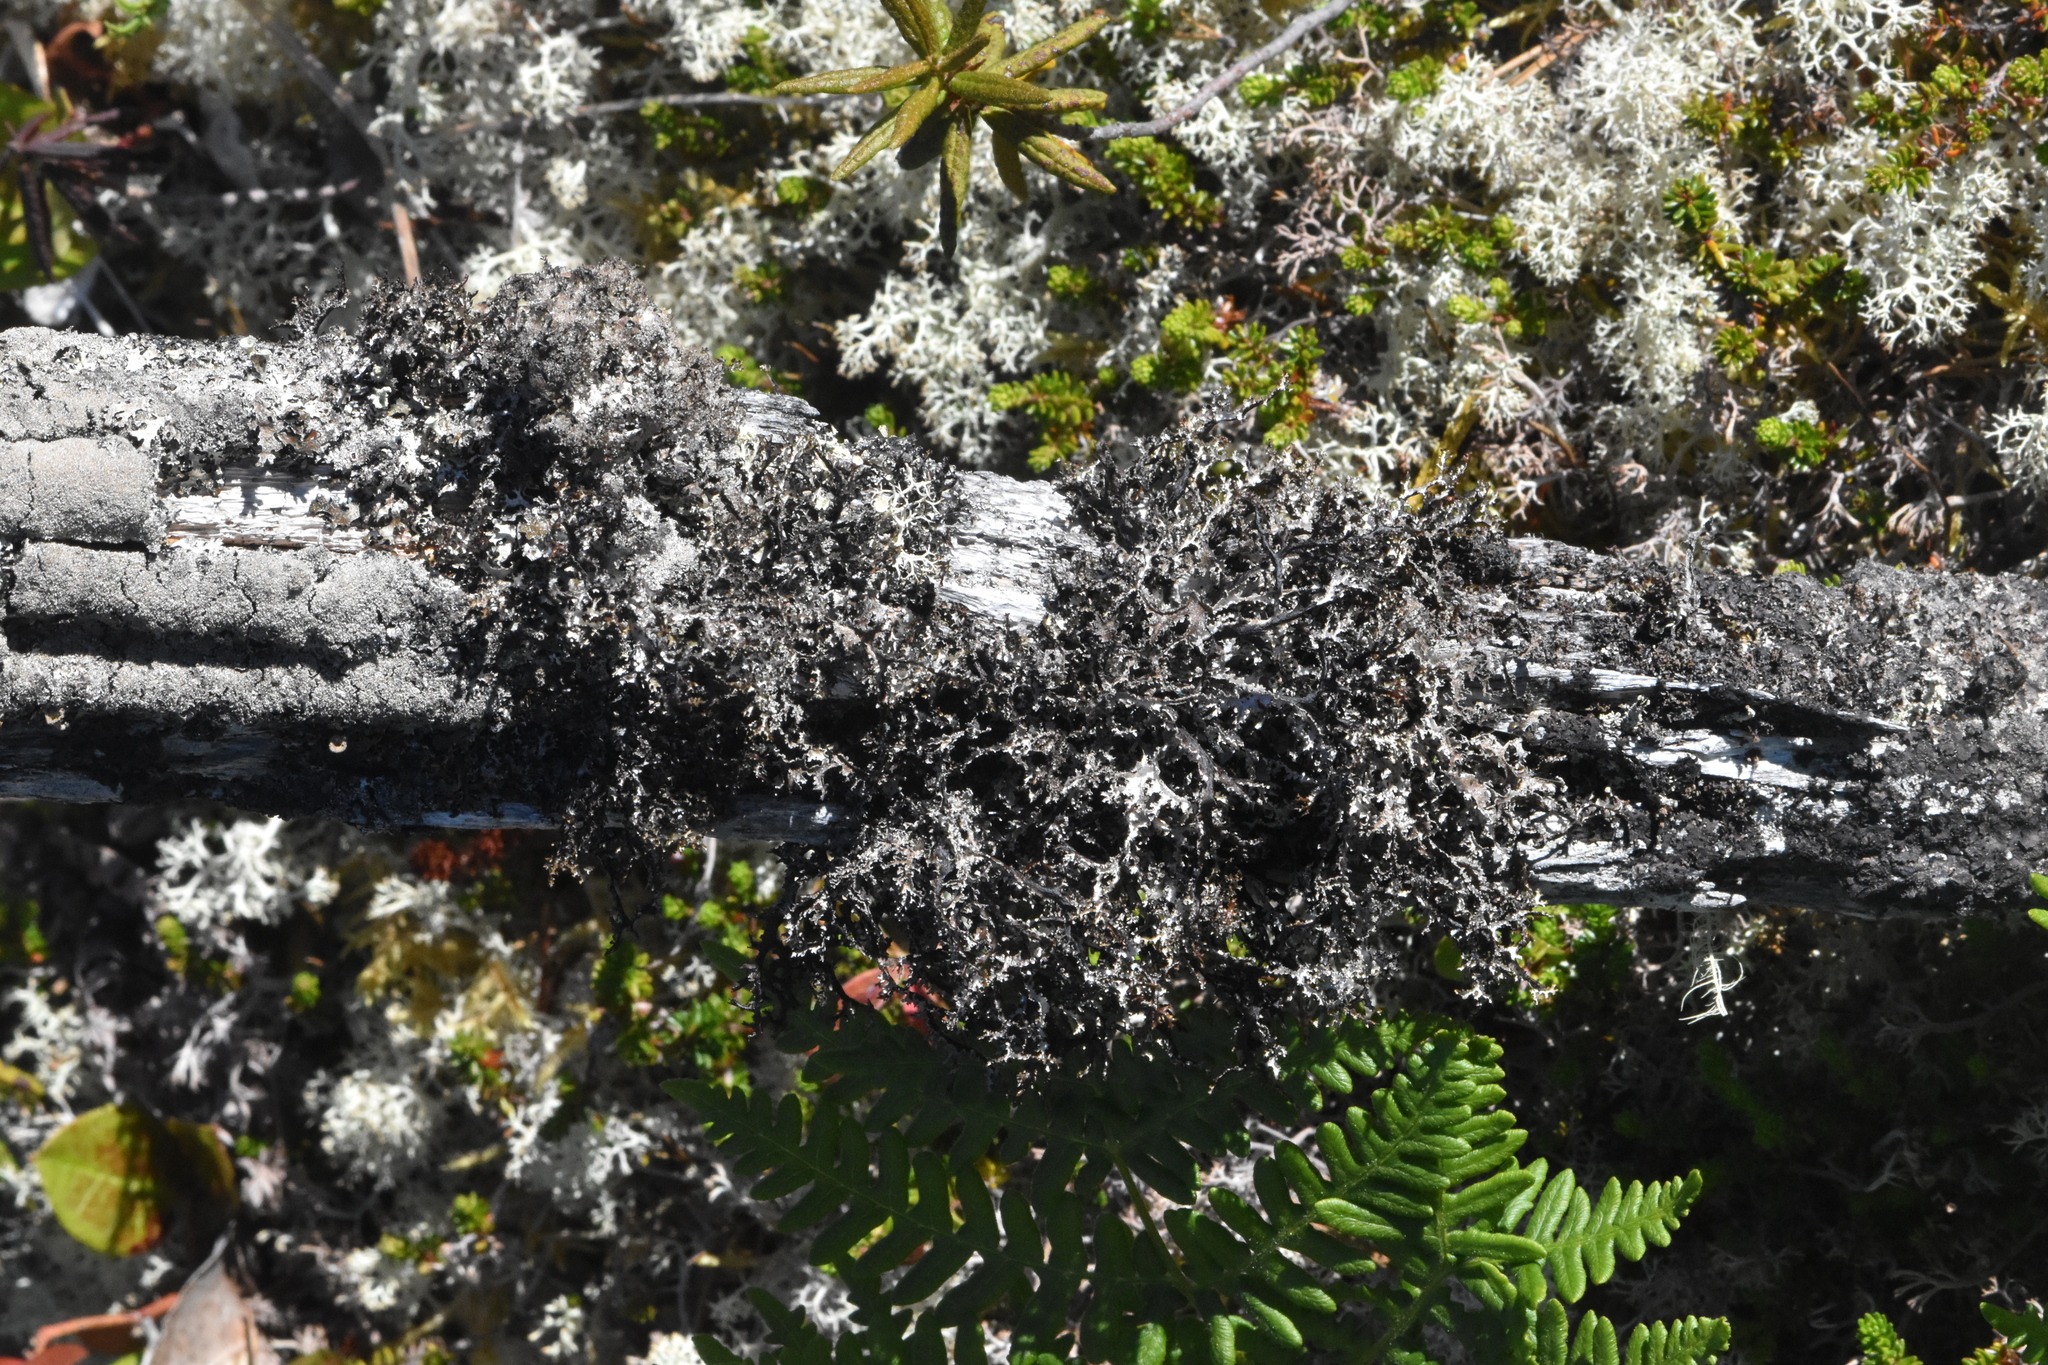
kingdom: Fungi
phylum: Ascomycota
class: Lecanoromycetes
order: Lecanorales
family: Parmeliaceae
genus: Platismatia
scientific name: Platismatia herrei
